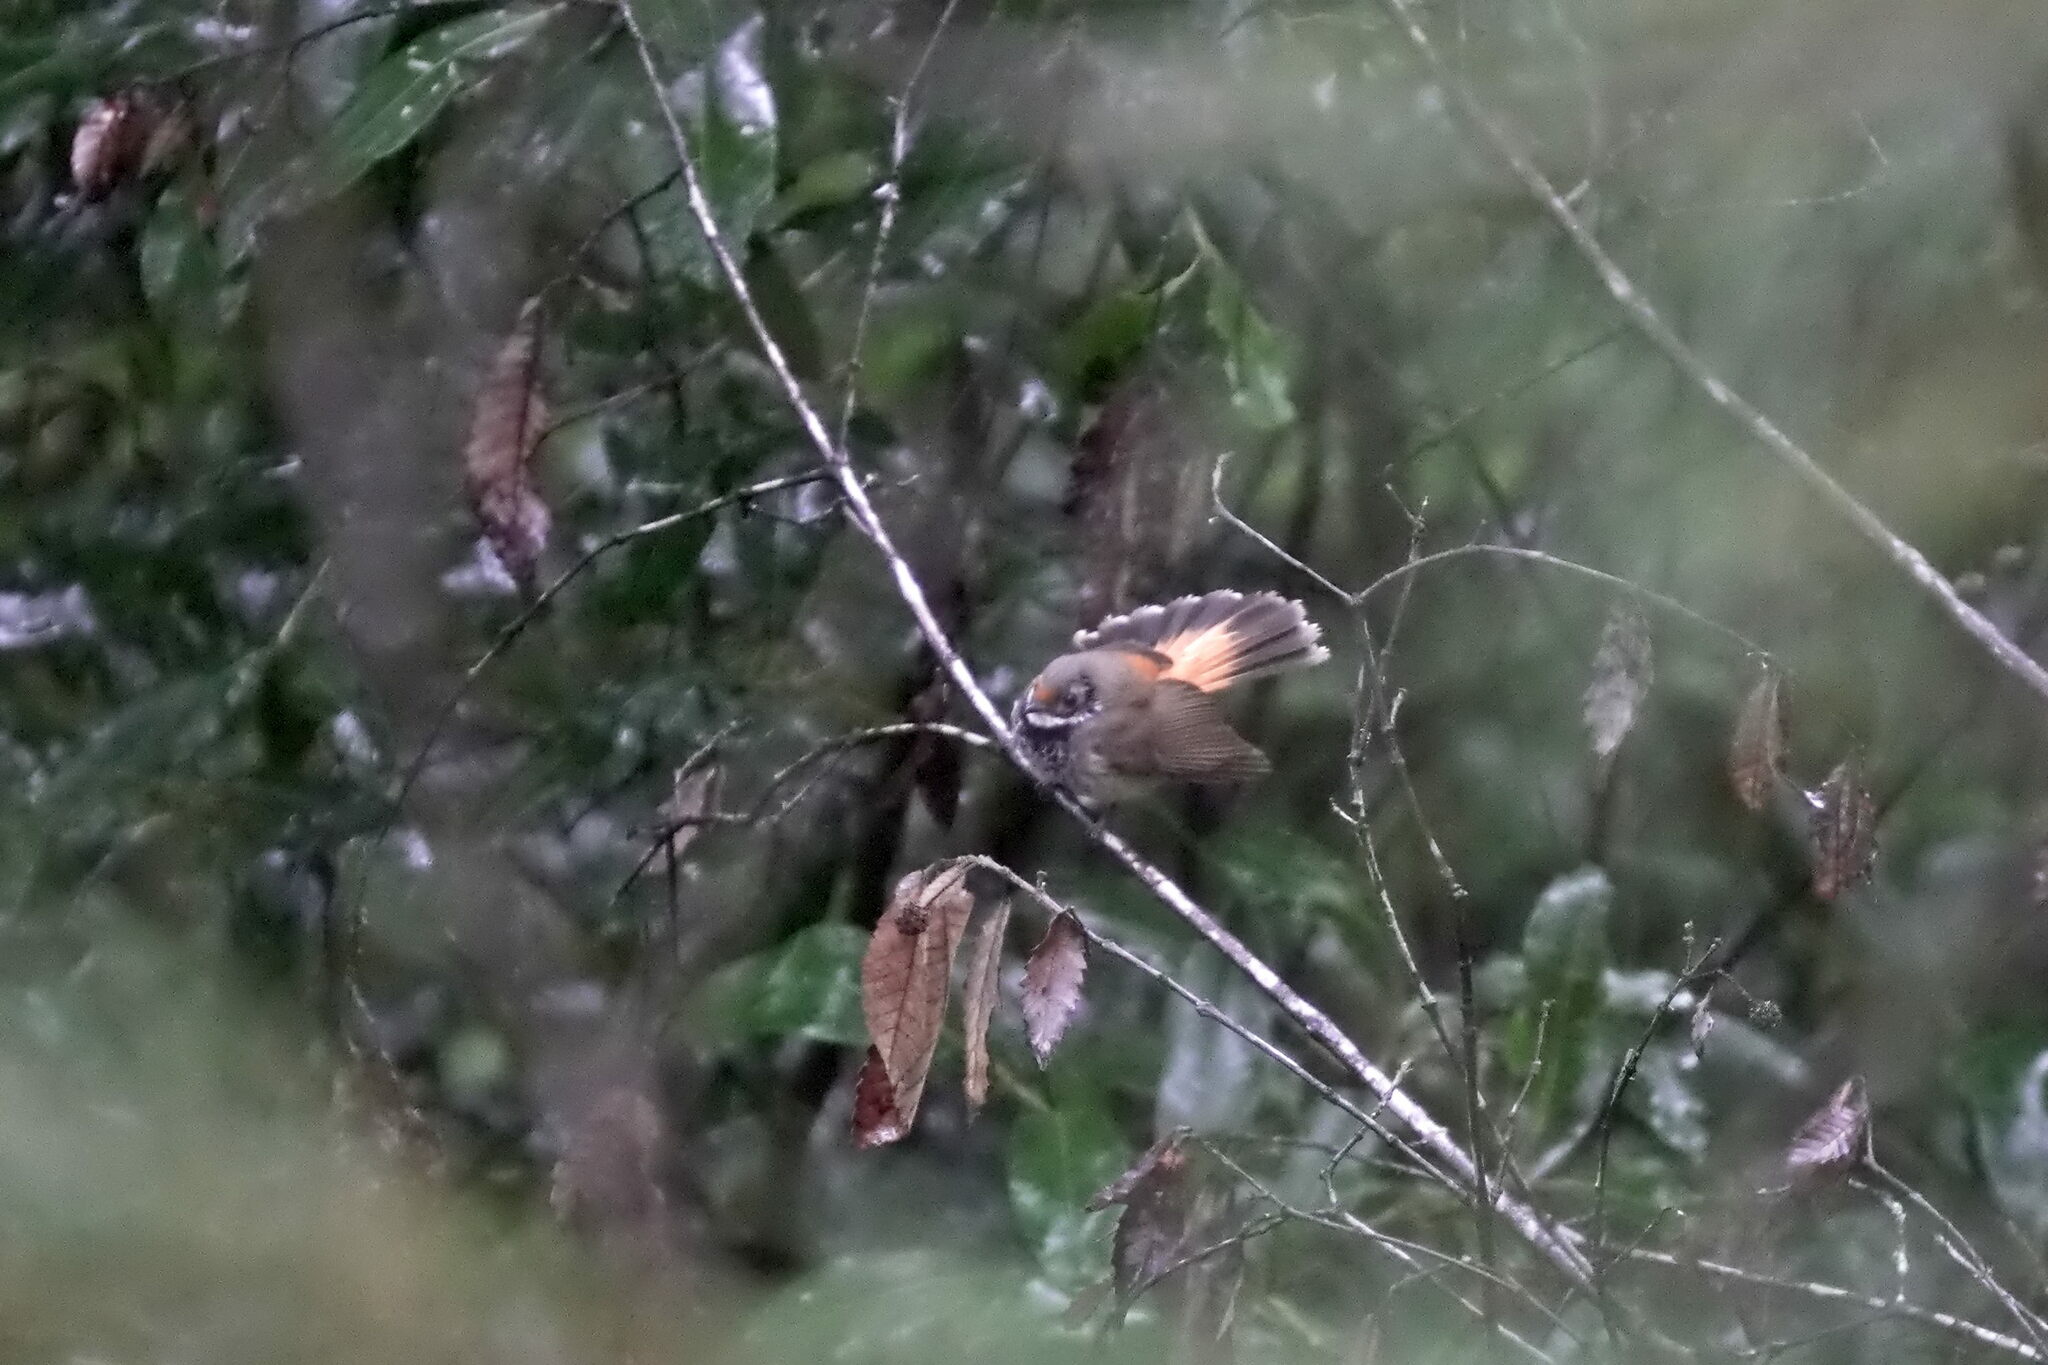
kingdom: Animalia
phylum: Chordata
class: Aves
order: Passeriformes
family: Rhipiduridae
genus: Rhipidura
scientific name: Rhipidura rufifrons
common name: Rufous fantail
